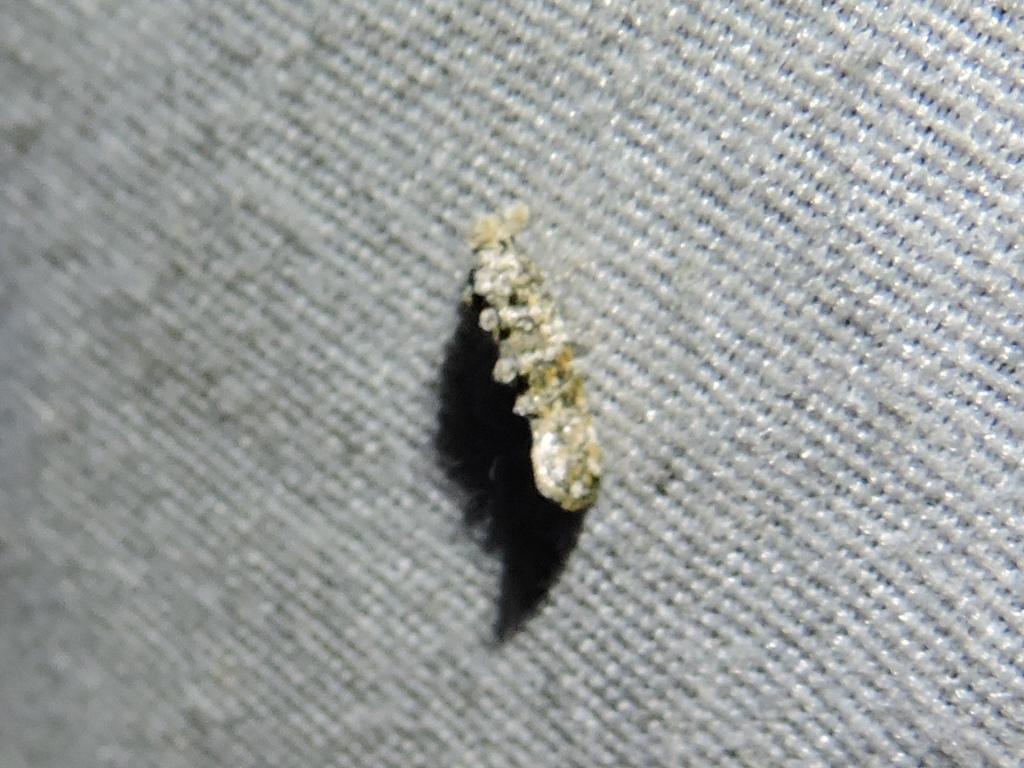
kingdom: Animalia
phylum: Arthropoda
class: Insecta
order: Lepidoptera
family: Tineidae
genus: Xylesthia
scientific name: Xylesthia pruniramiella
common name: Clemens' bark moth
